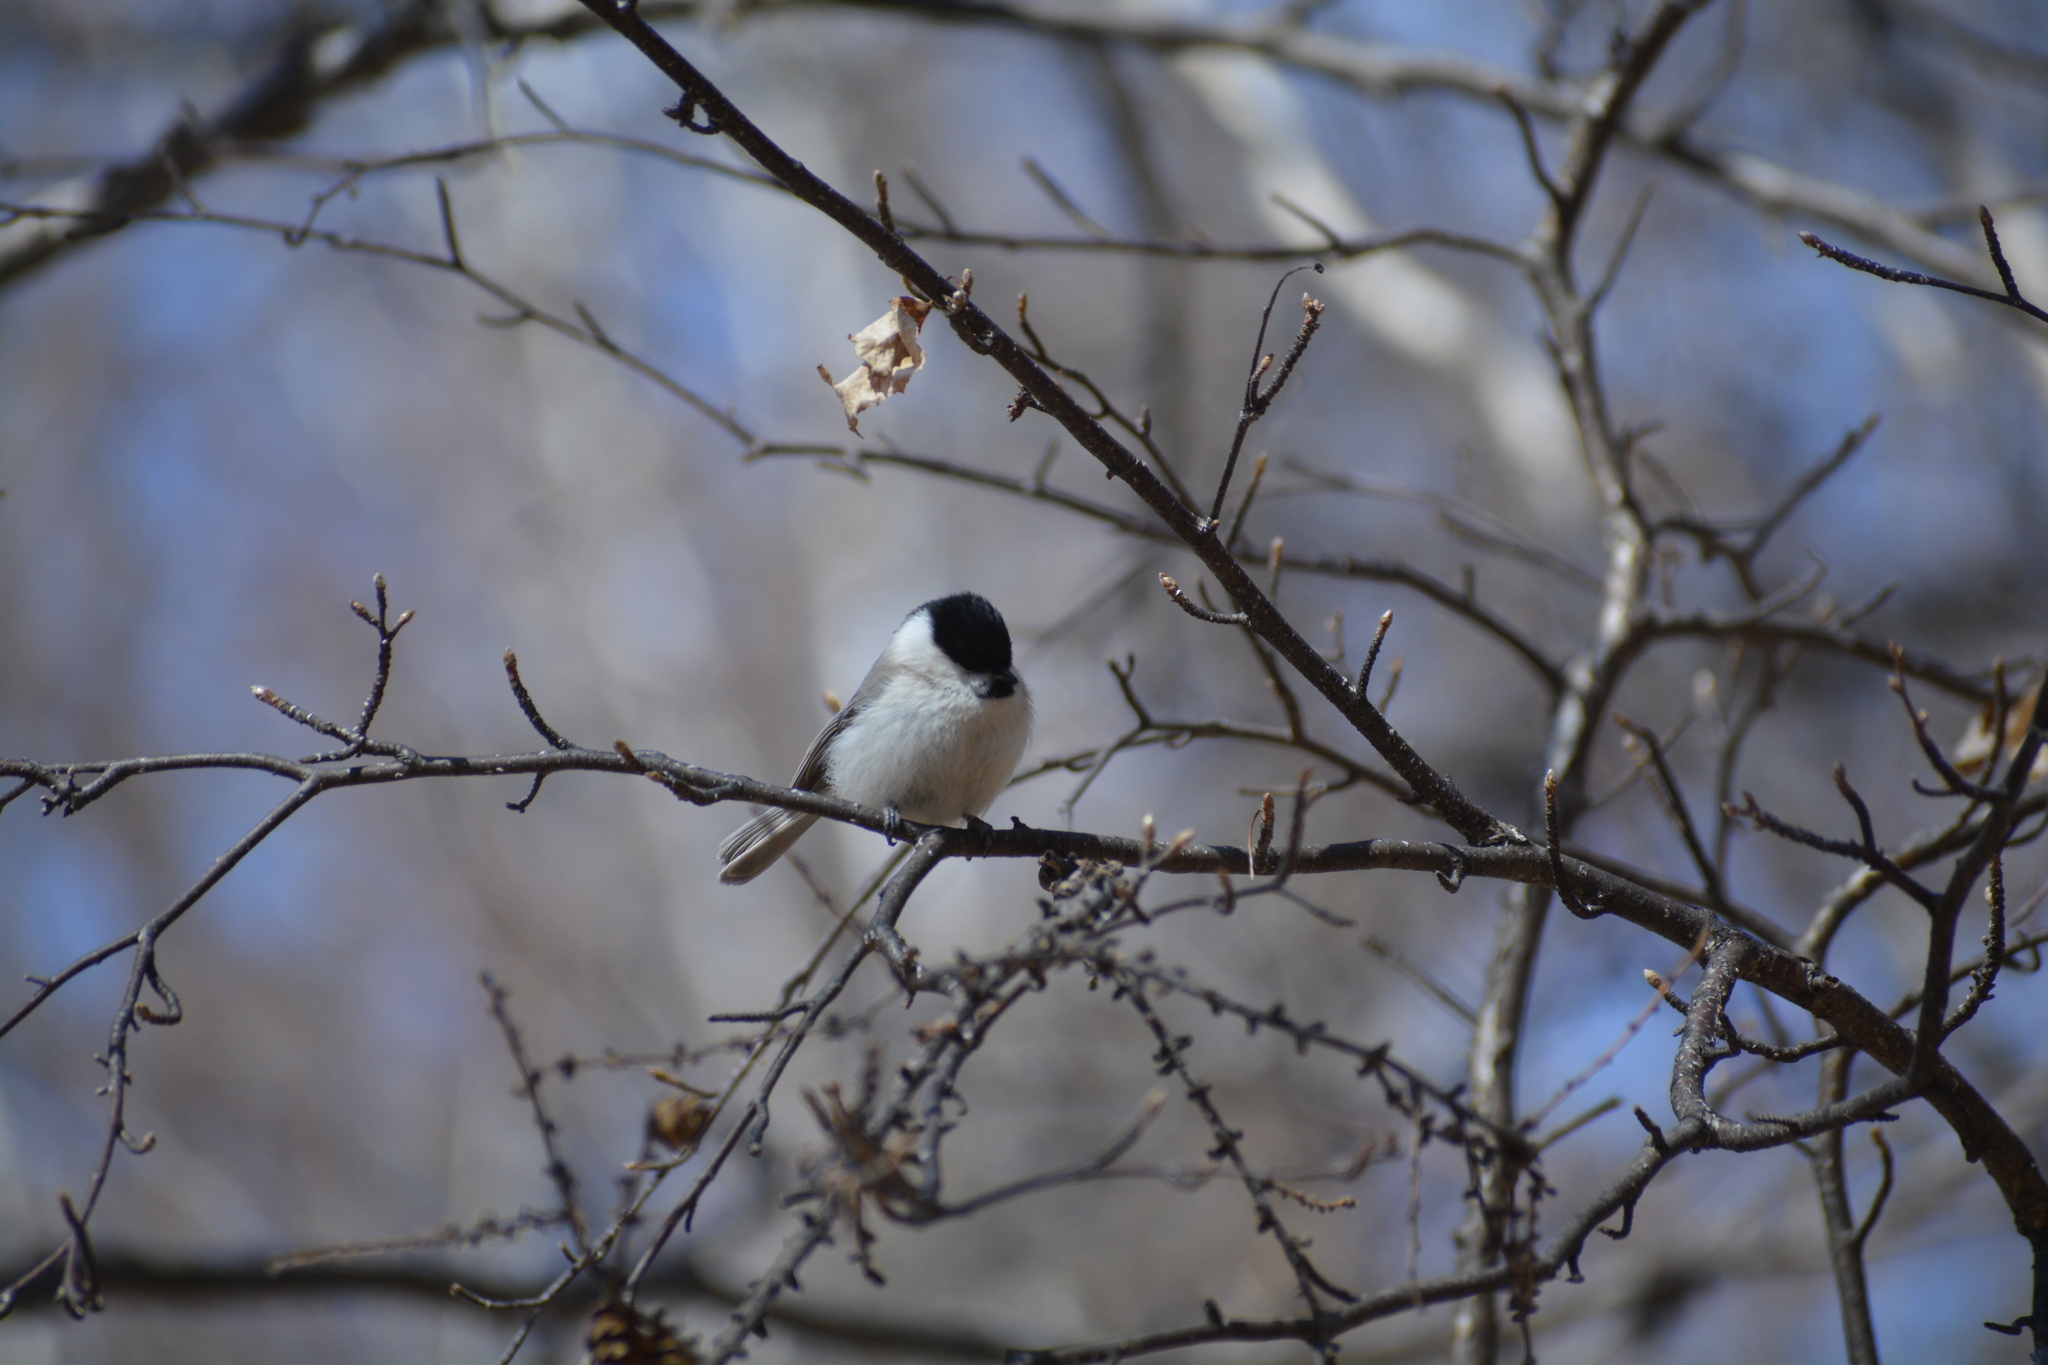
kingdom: Animalia
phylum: Chordata
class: Aves
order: Passeriformes
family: Paridae
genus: Poecile
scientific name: Poecile montanus
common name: Willow tit
